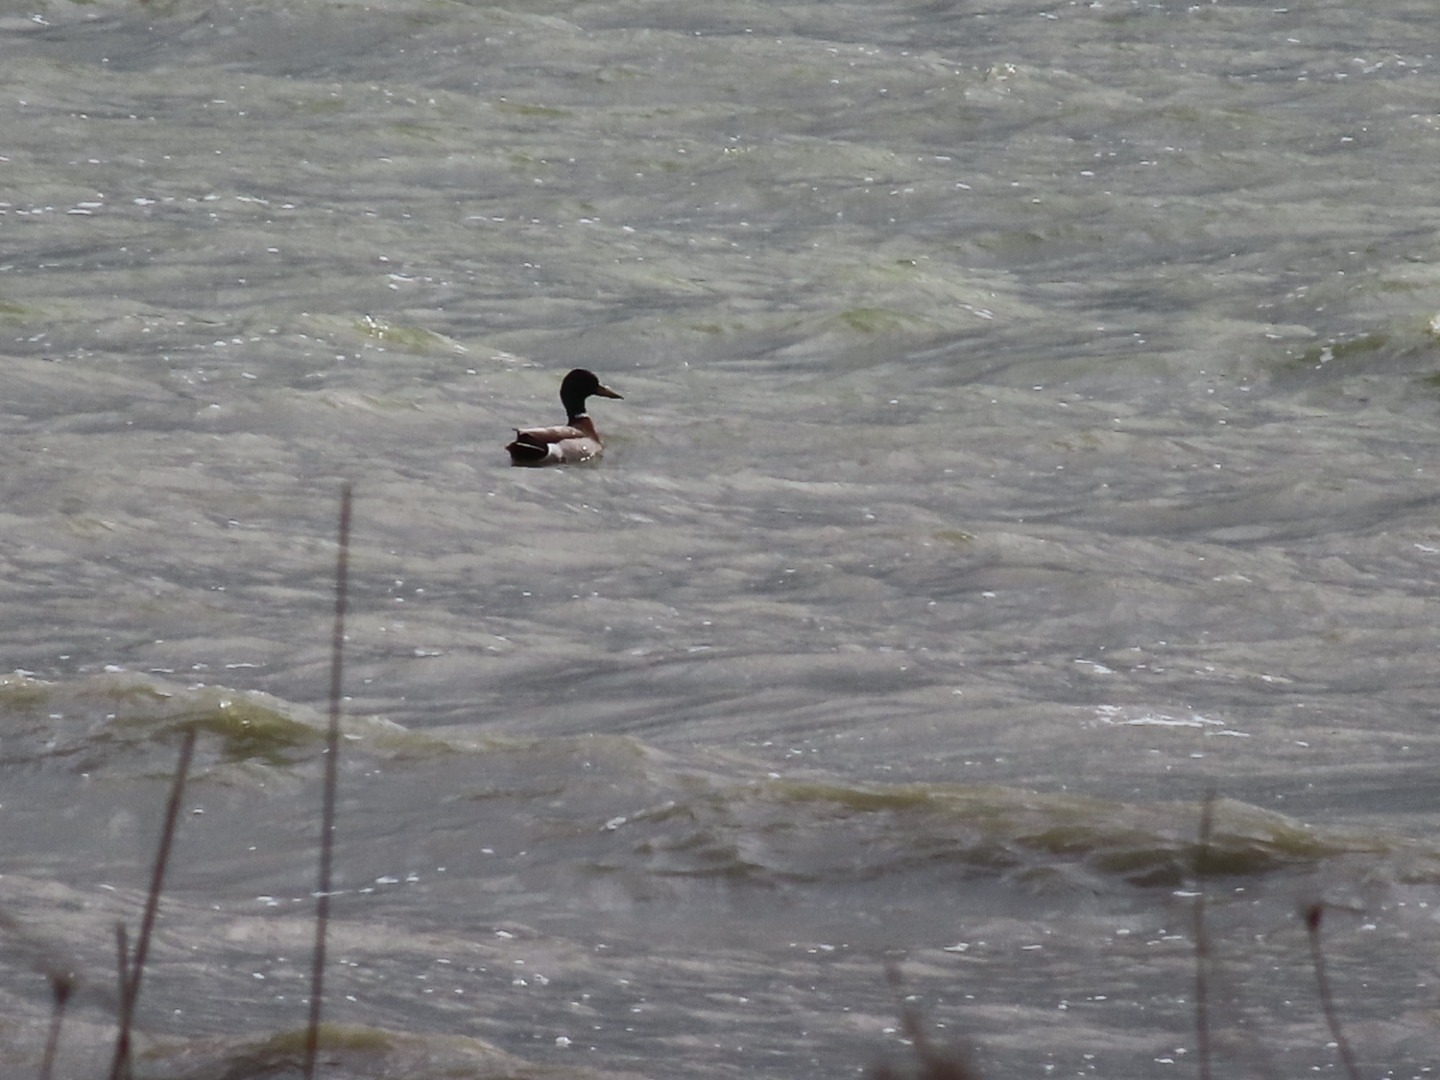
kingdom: Animalia
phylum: Chordata
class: Aves
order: Anseriformes
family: Anatidae
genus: Anas
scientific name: Anas platyrhynchos
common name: Mallard
